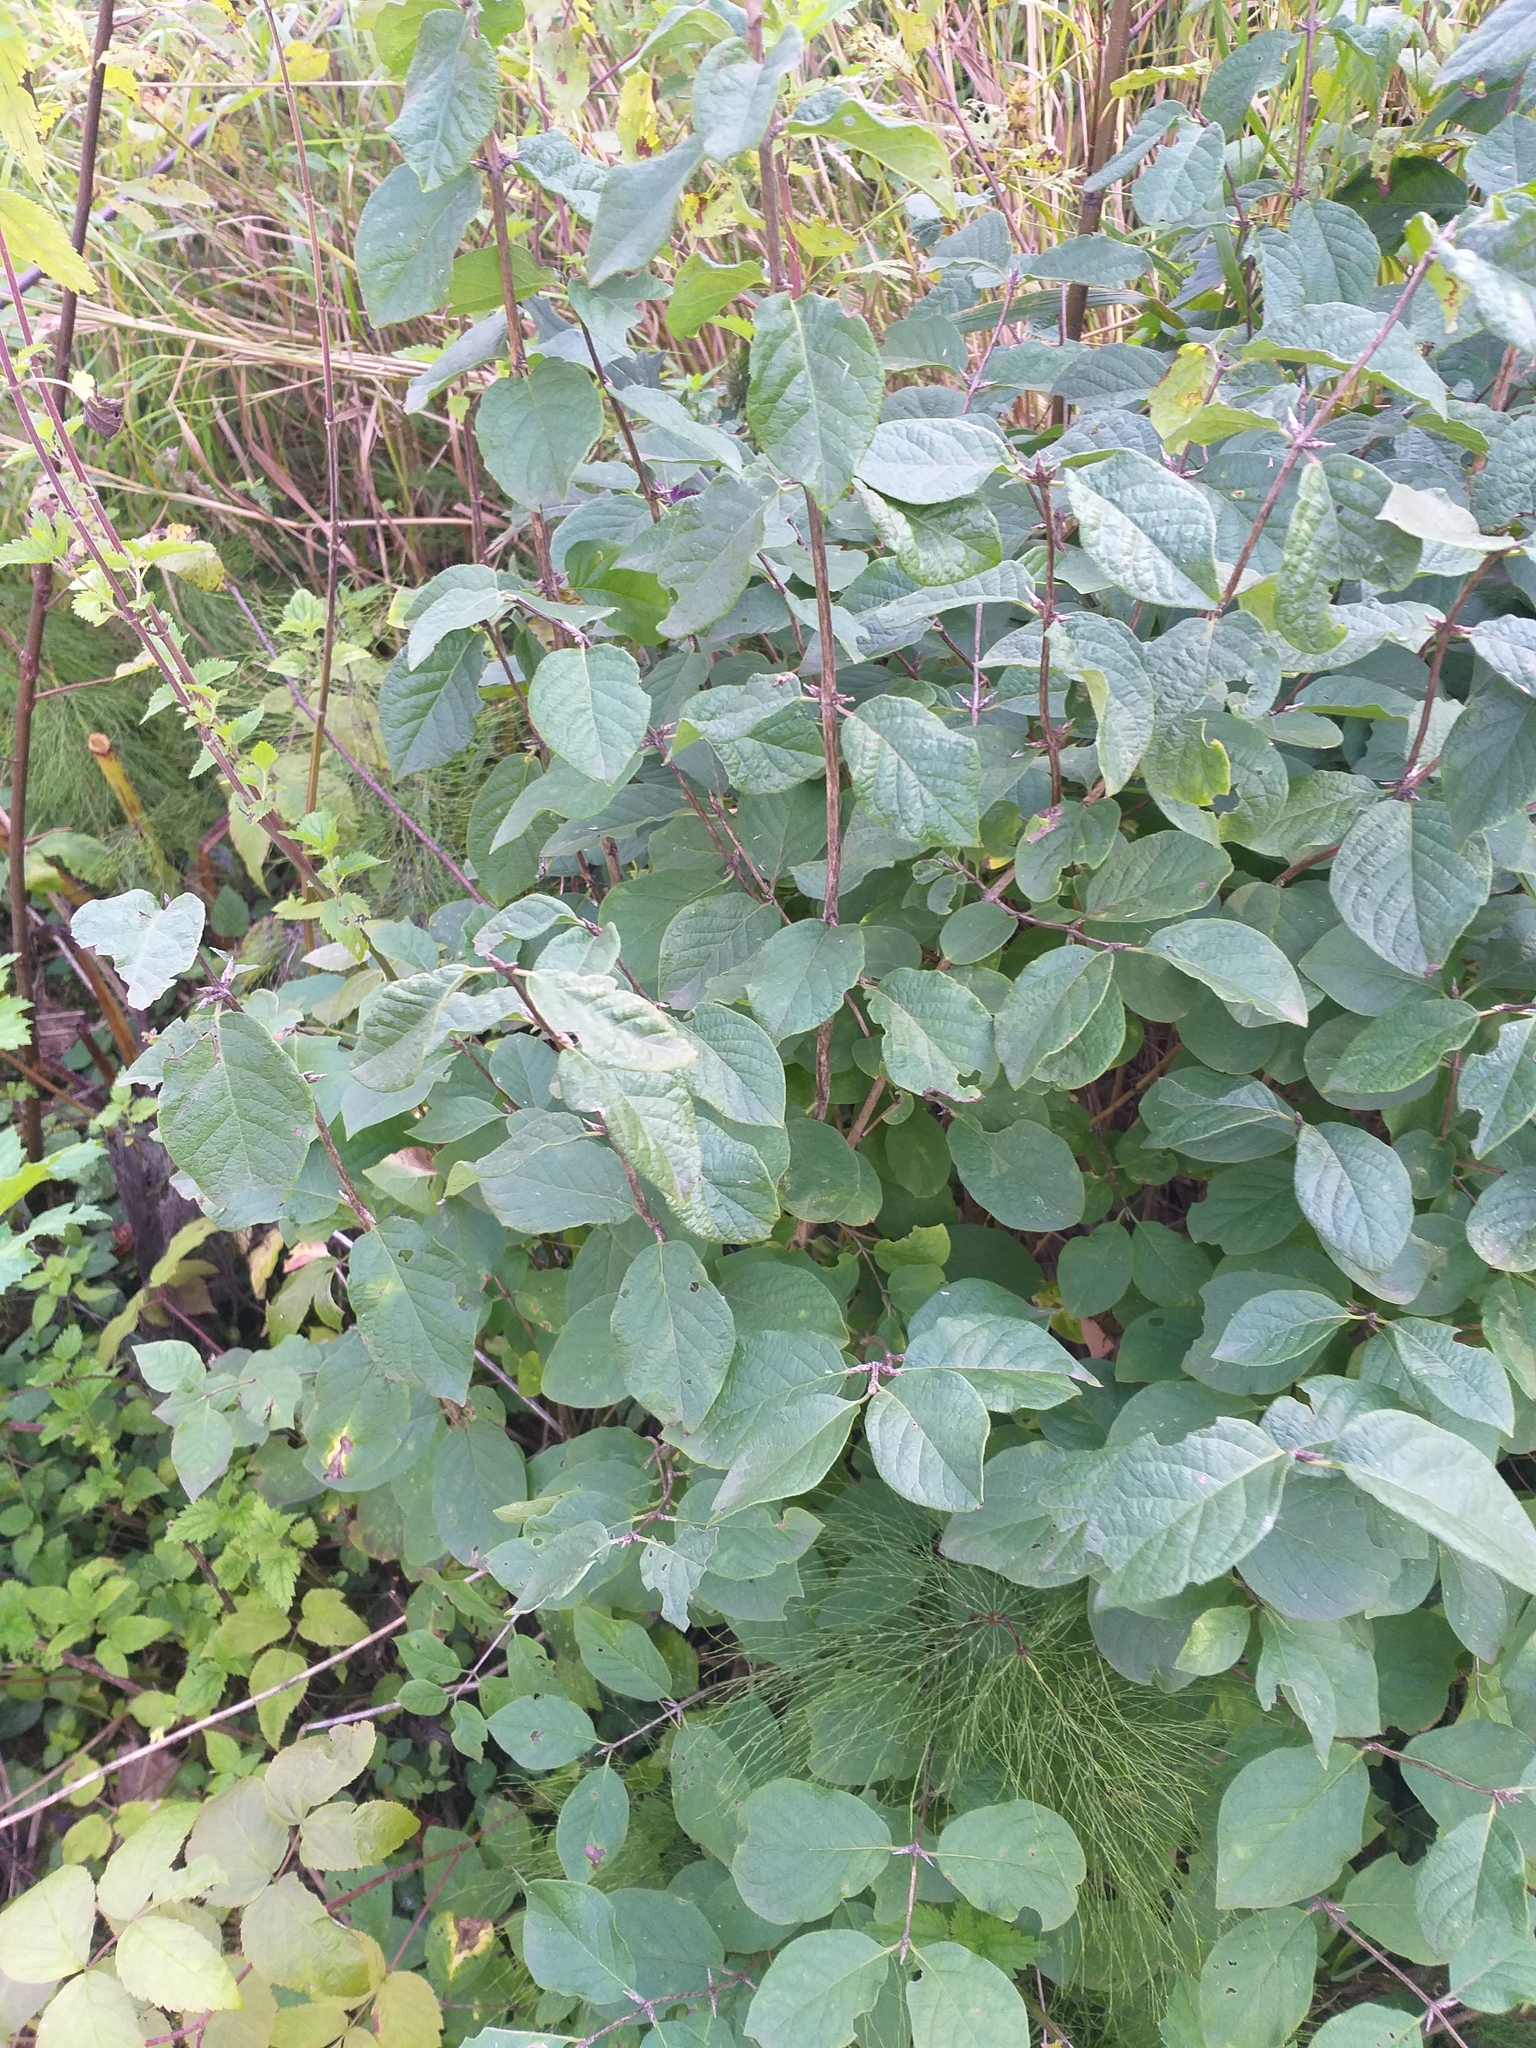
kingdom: Plantae
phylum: Tracheophyta
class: Magnoliopsida
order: Dipsacales
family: Caprifoliaceae
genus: Lonicera
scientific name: Lonicera xylosteum
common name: Fly honeysuckle
